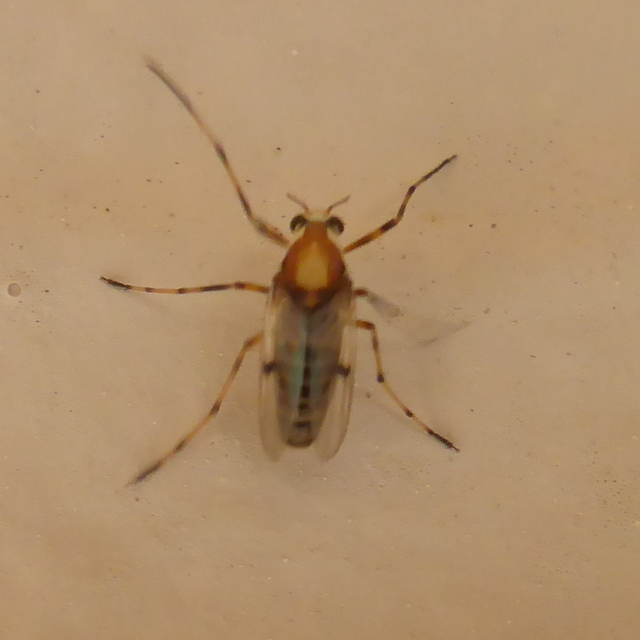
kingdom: Animalia
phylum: Arthropoda
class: Insecta
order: Diptera
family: Chironomidae
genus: Coelotanypus
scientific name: Coelotanypus tricolor
